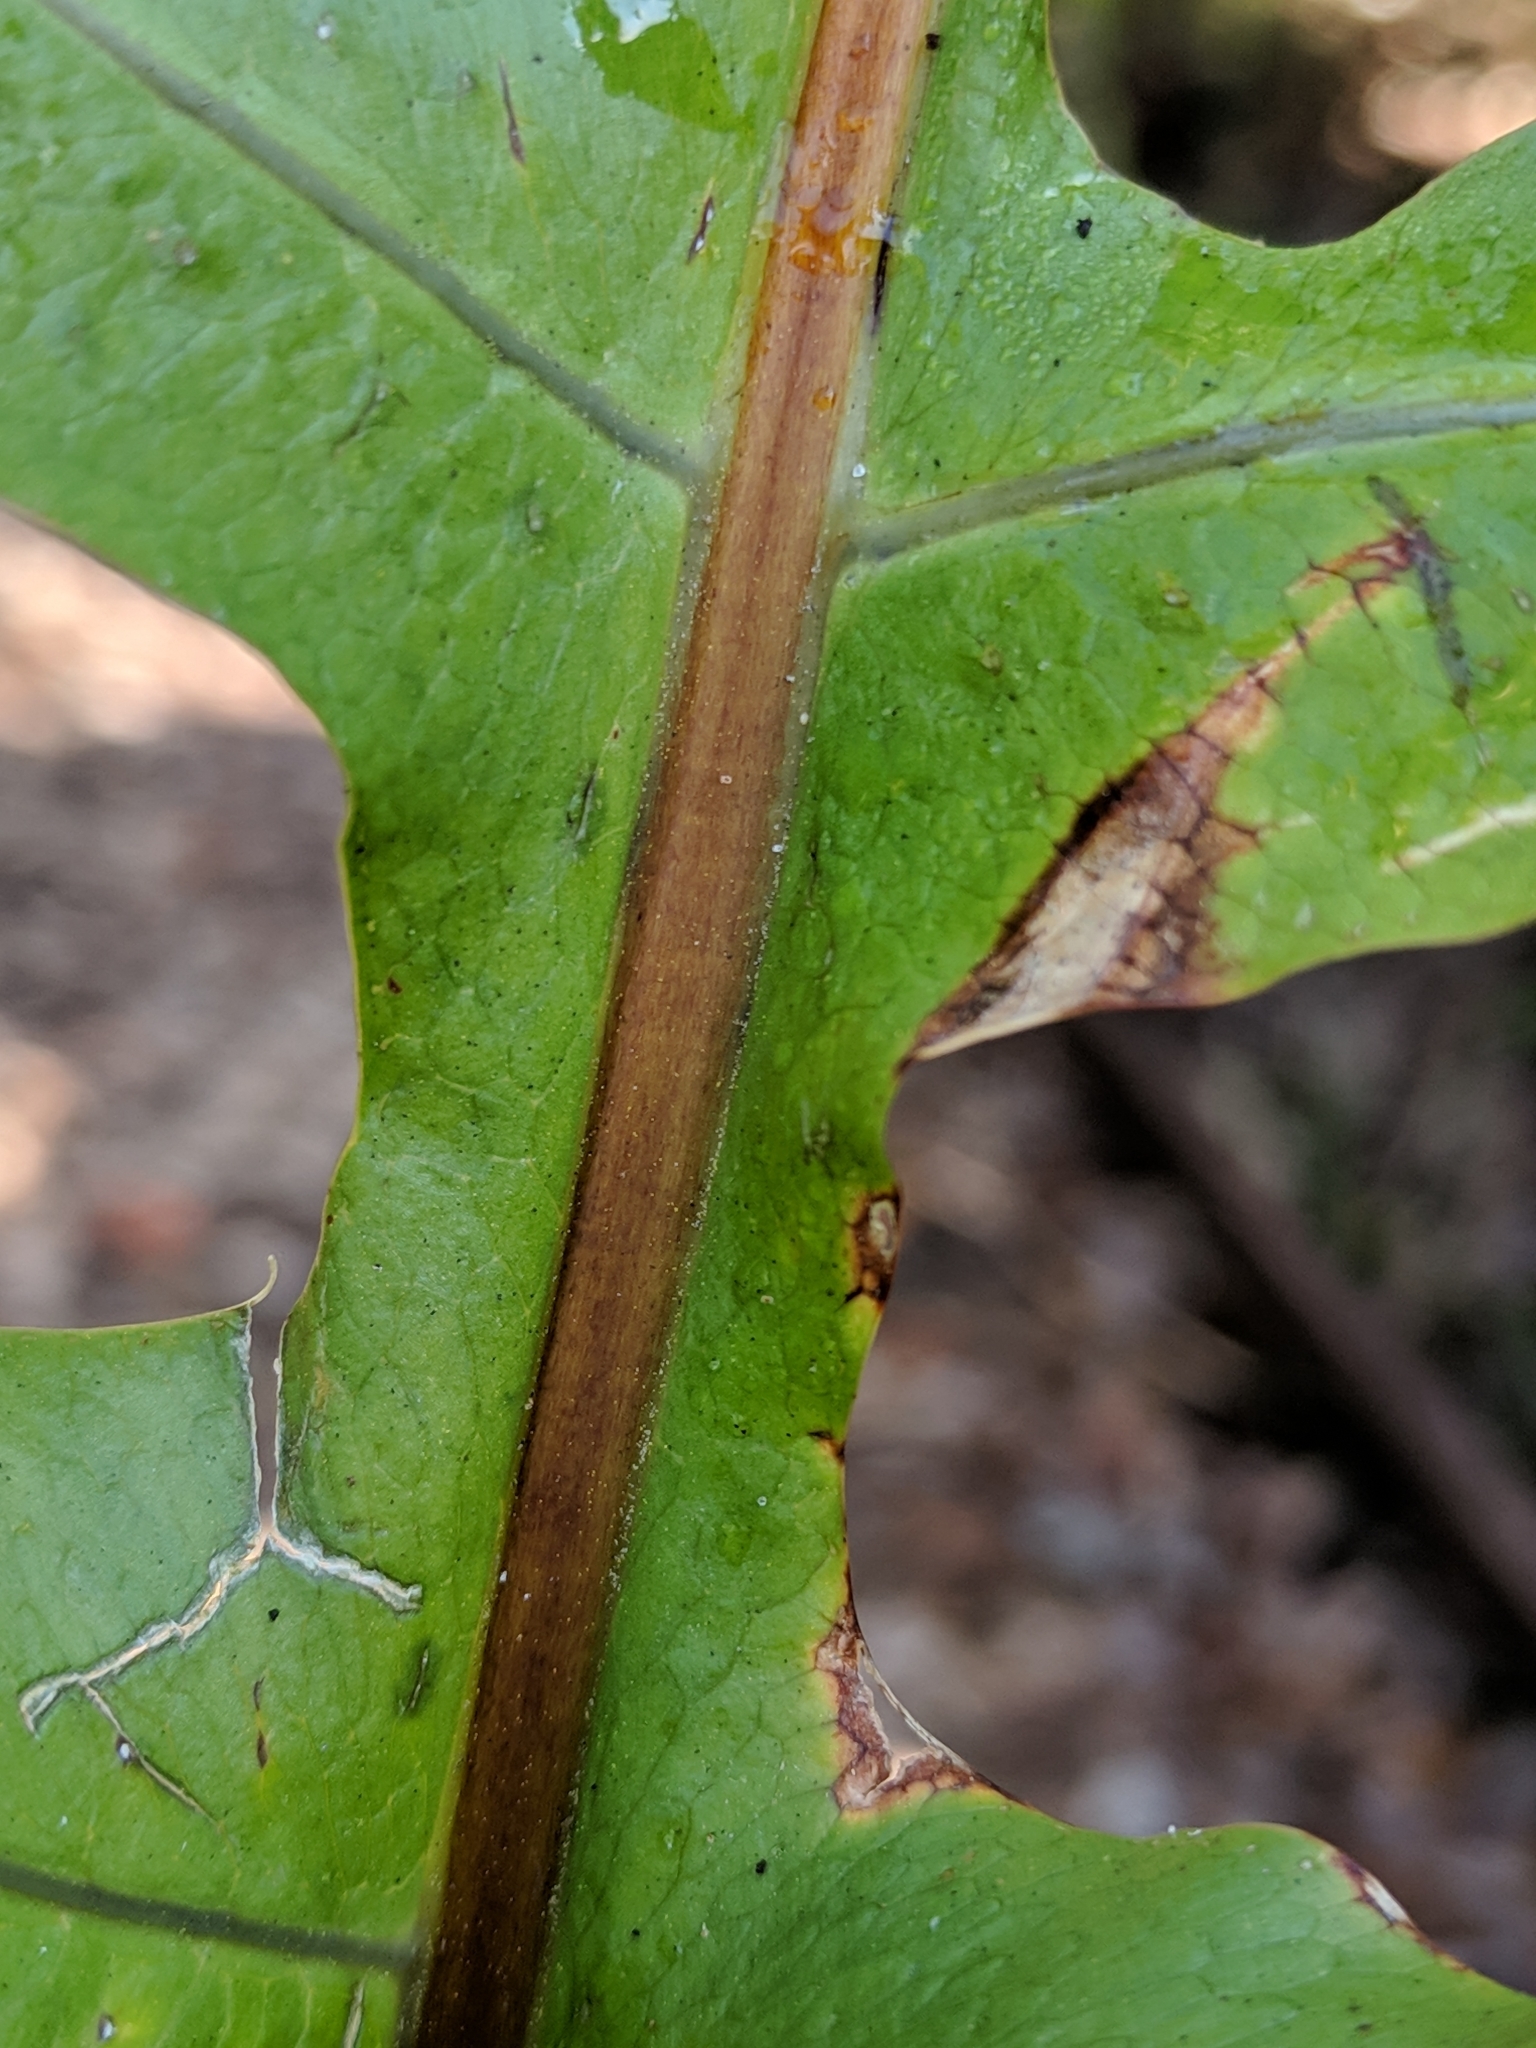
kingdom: Plantae
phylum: Tracheophyta
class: Polypodiopsida
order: Polypodiales
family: Polypodiaceae
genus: Phlebodium
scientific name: Phlebodium aureum
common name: Gold-foot fern
